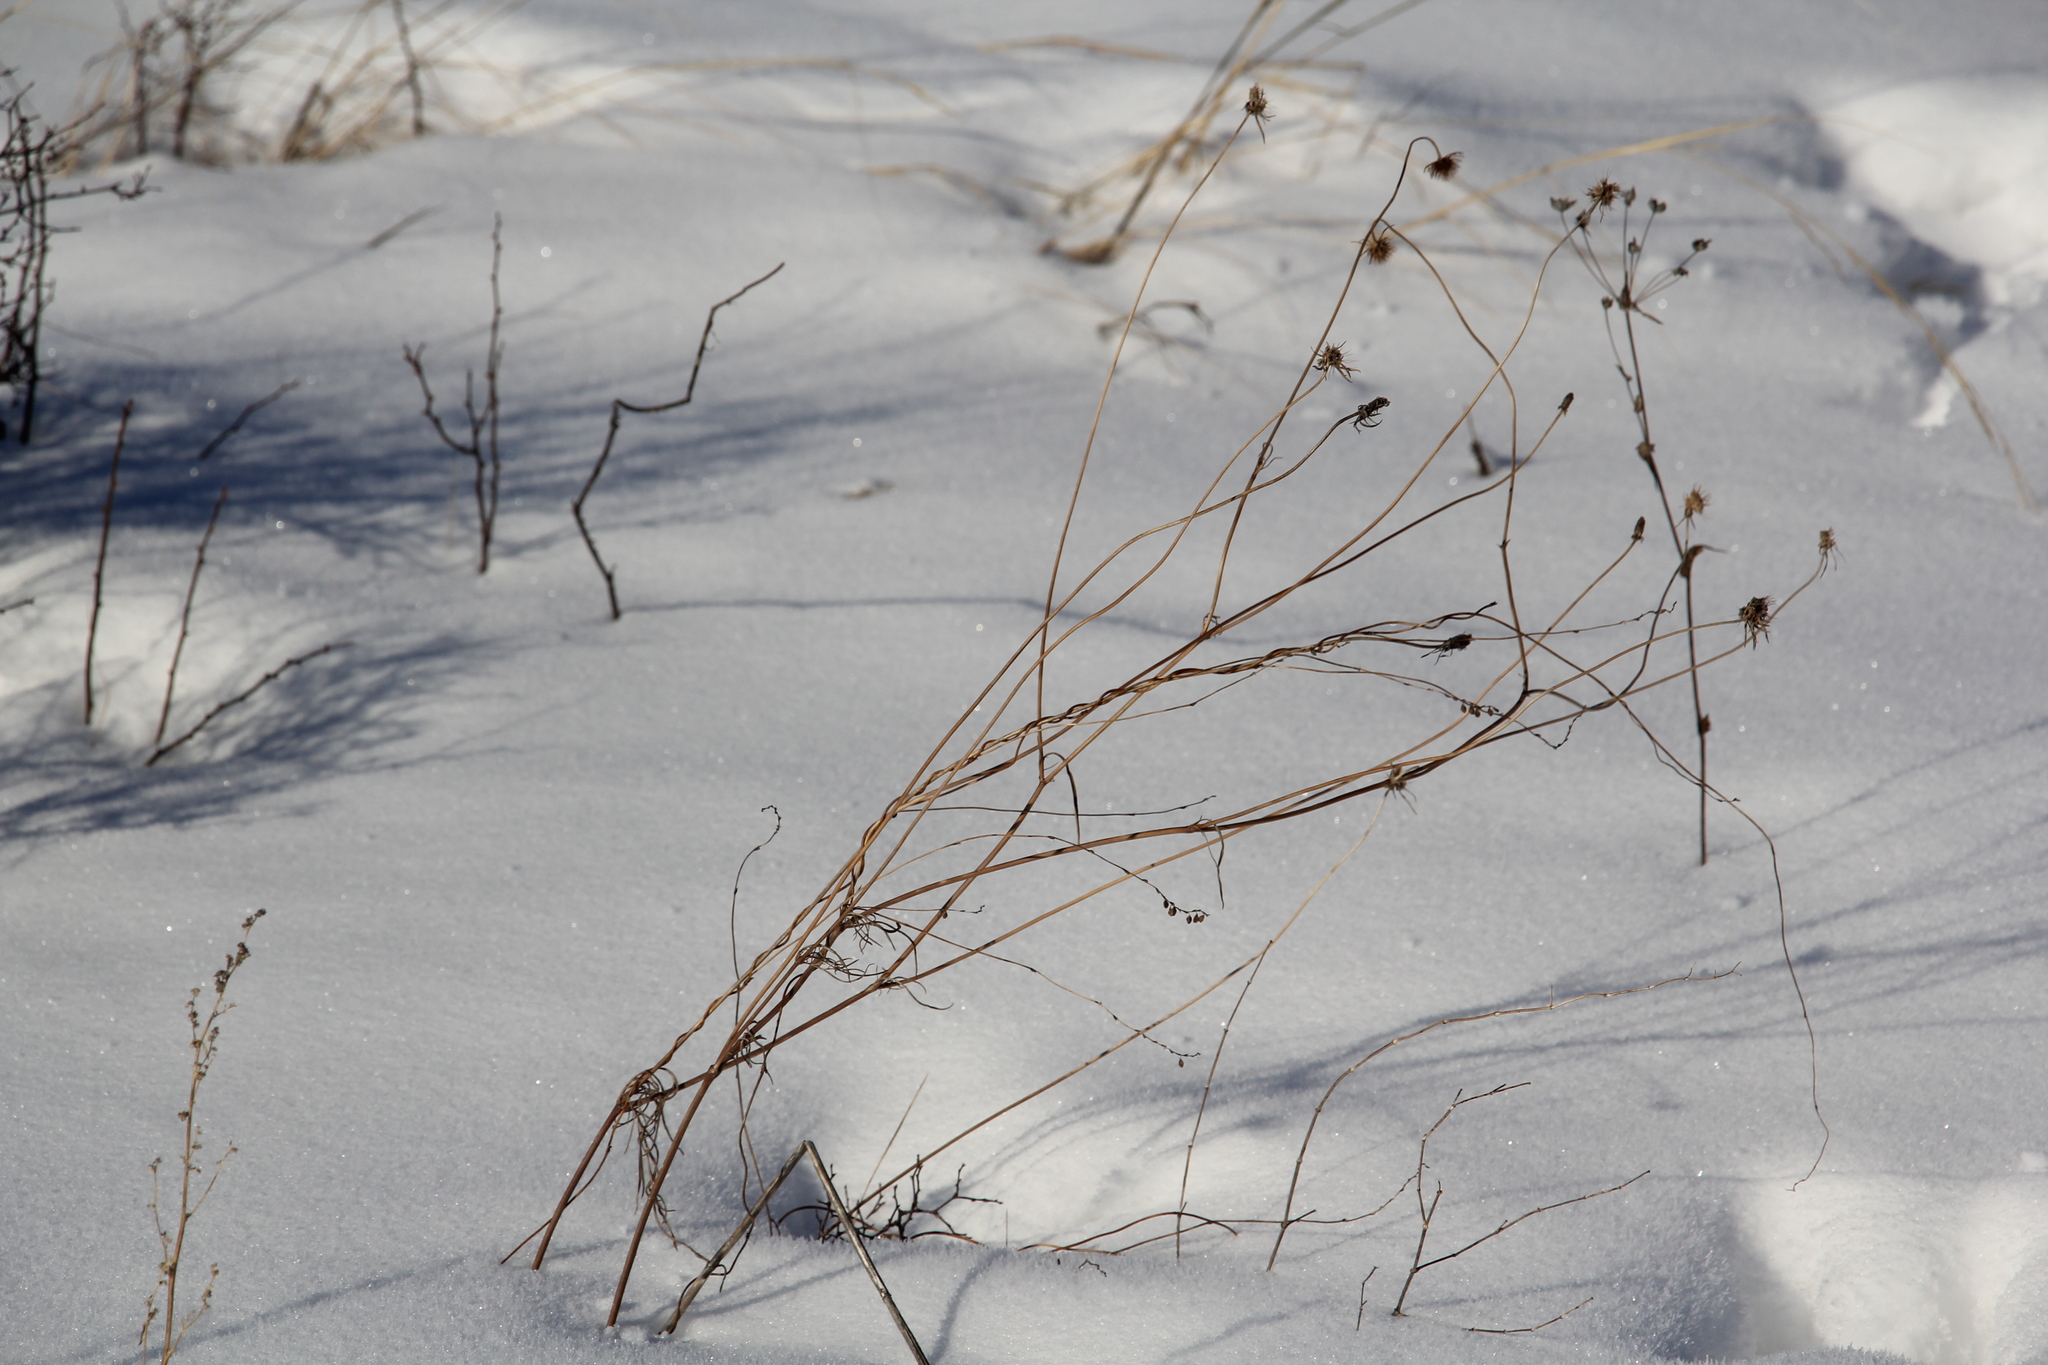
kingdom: Plantae
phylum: Tracheophyta
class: Magnoliopsida
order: Dipsacales
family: Caprifoliaceae
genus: Scabiosa
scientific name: Scabiosa ochroleuca
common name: Cream pincushions
